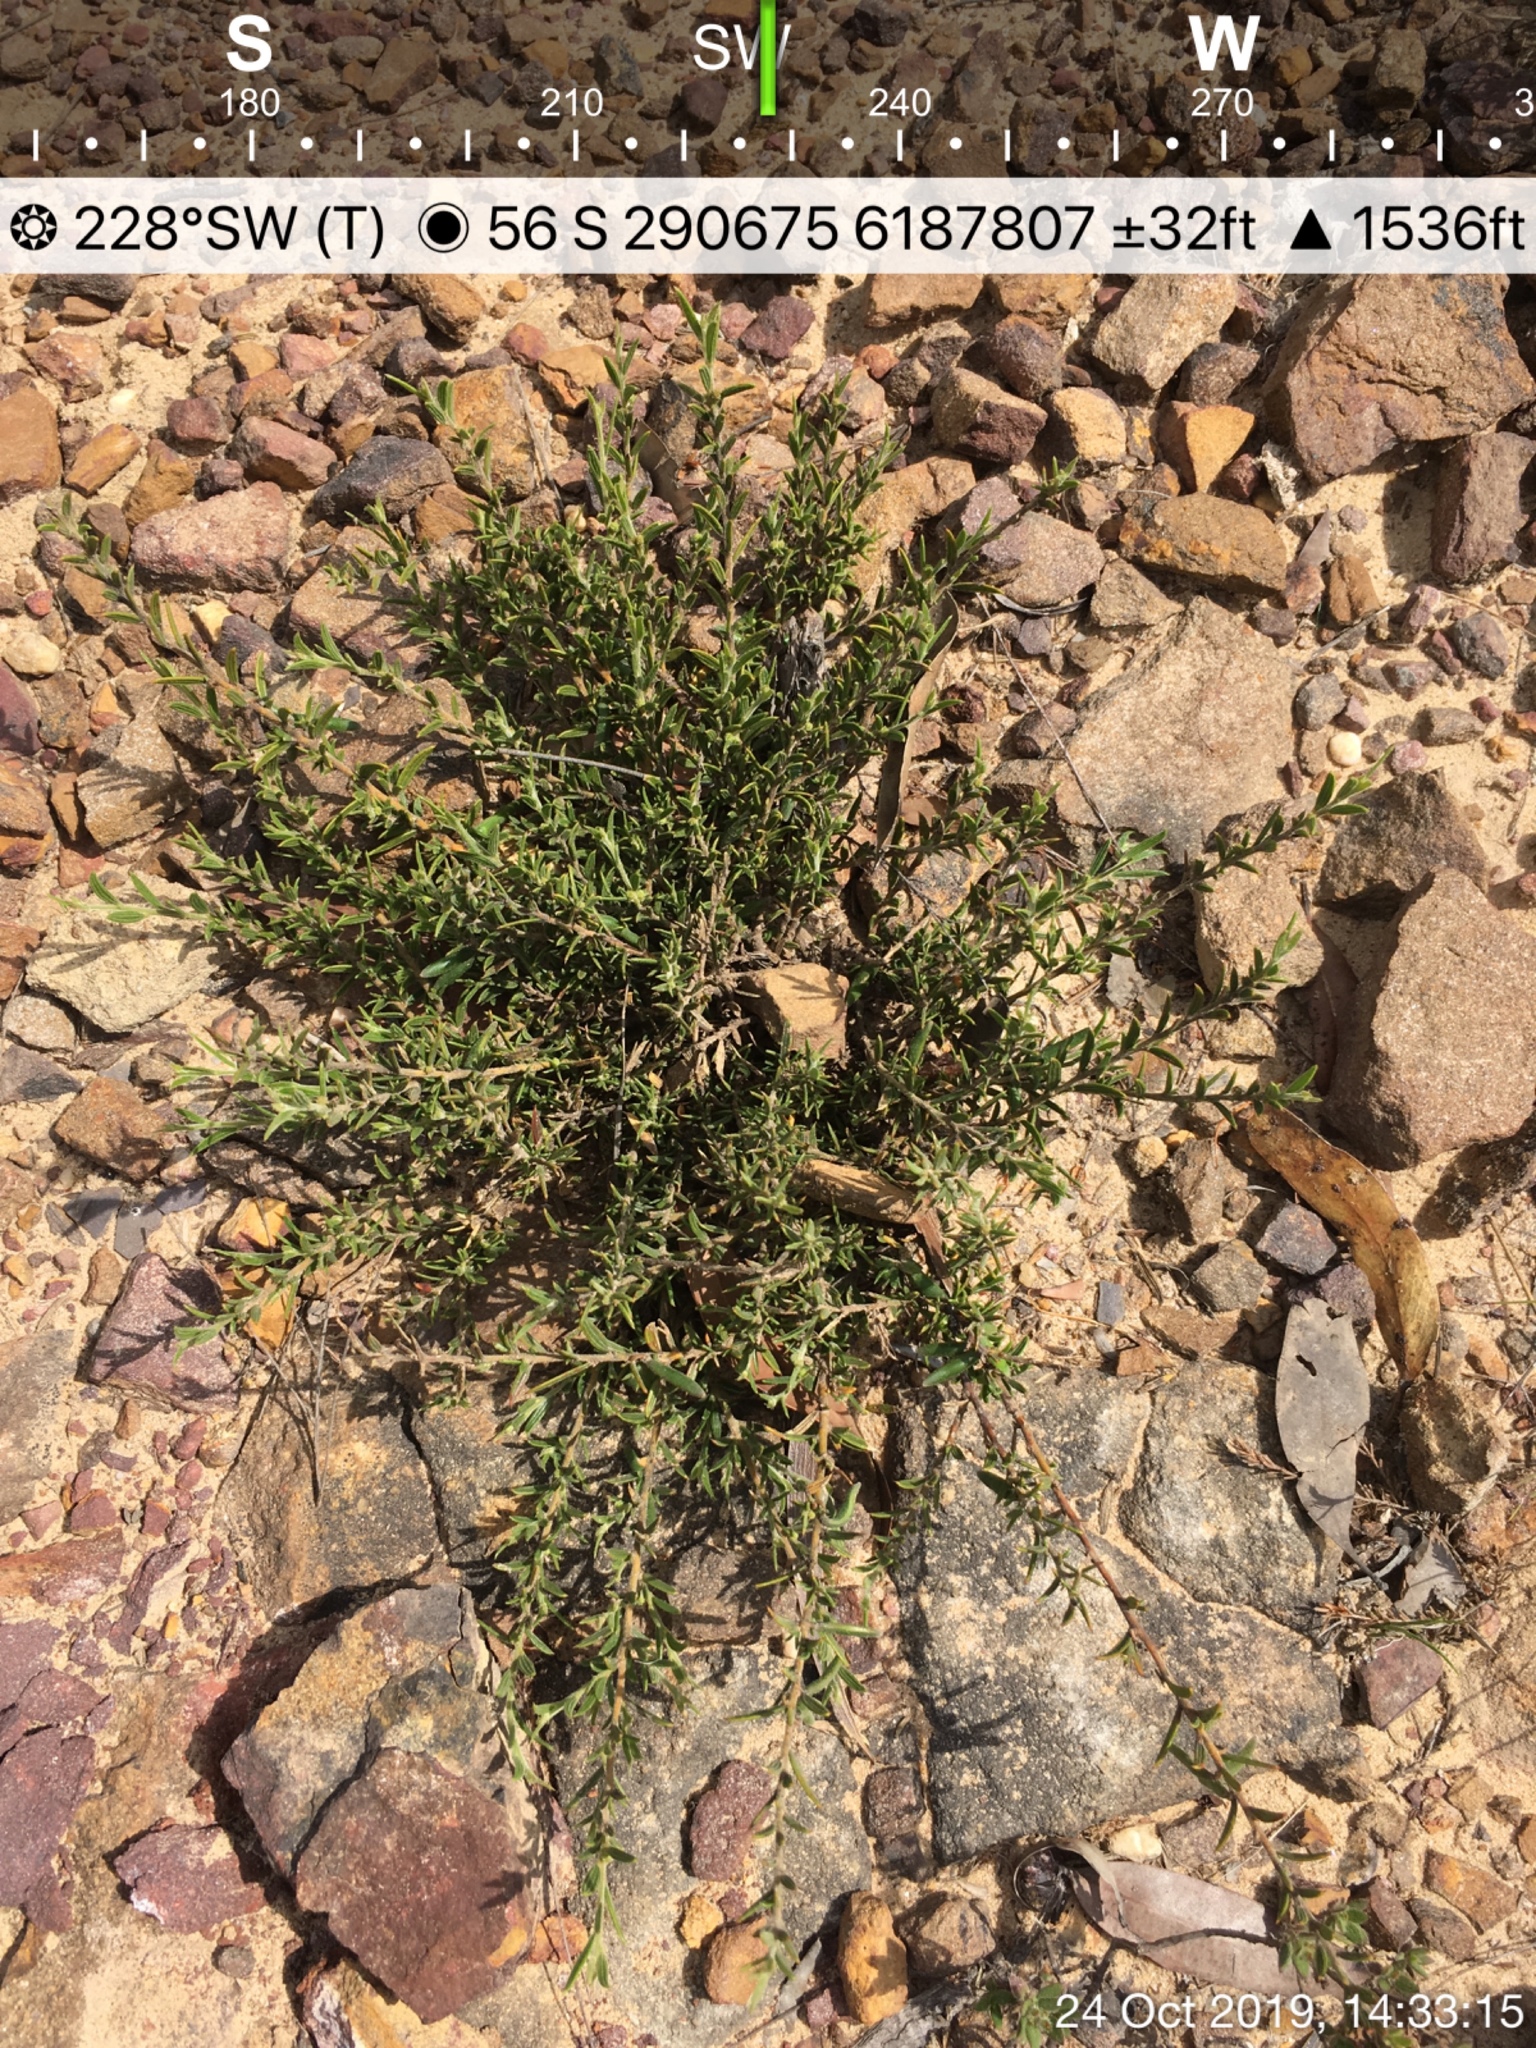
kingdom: Plantae
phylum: Tracheophyta
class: Magnoliopsida
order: Fabales
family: Fabaceae
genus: Acacia
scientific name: Acacia bynoeana
